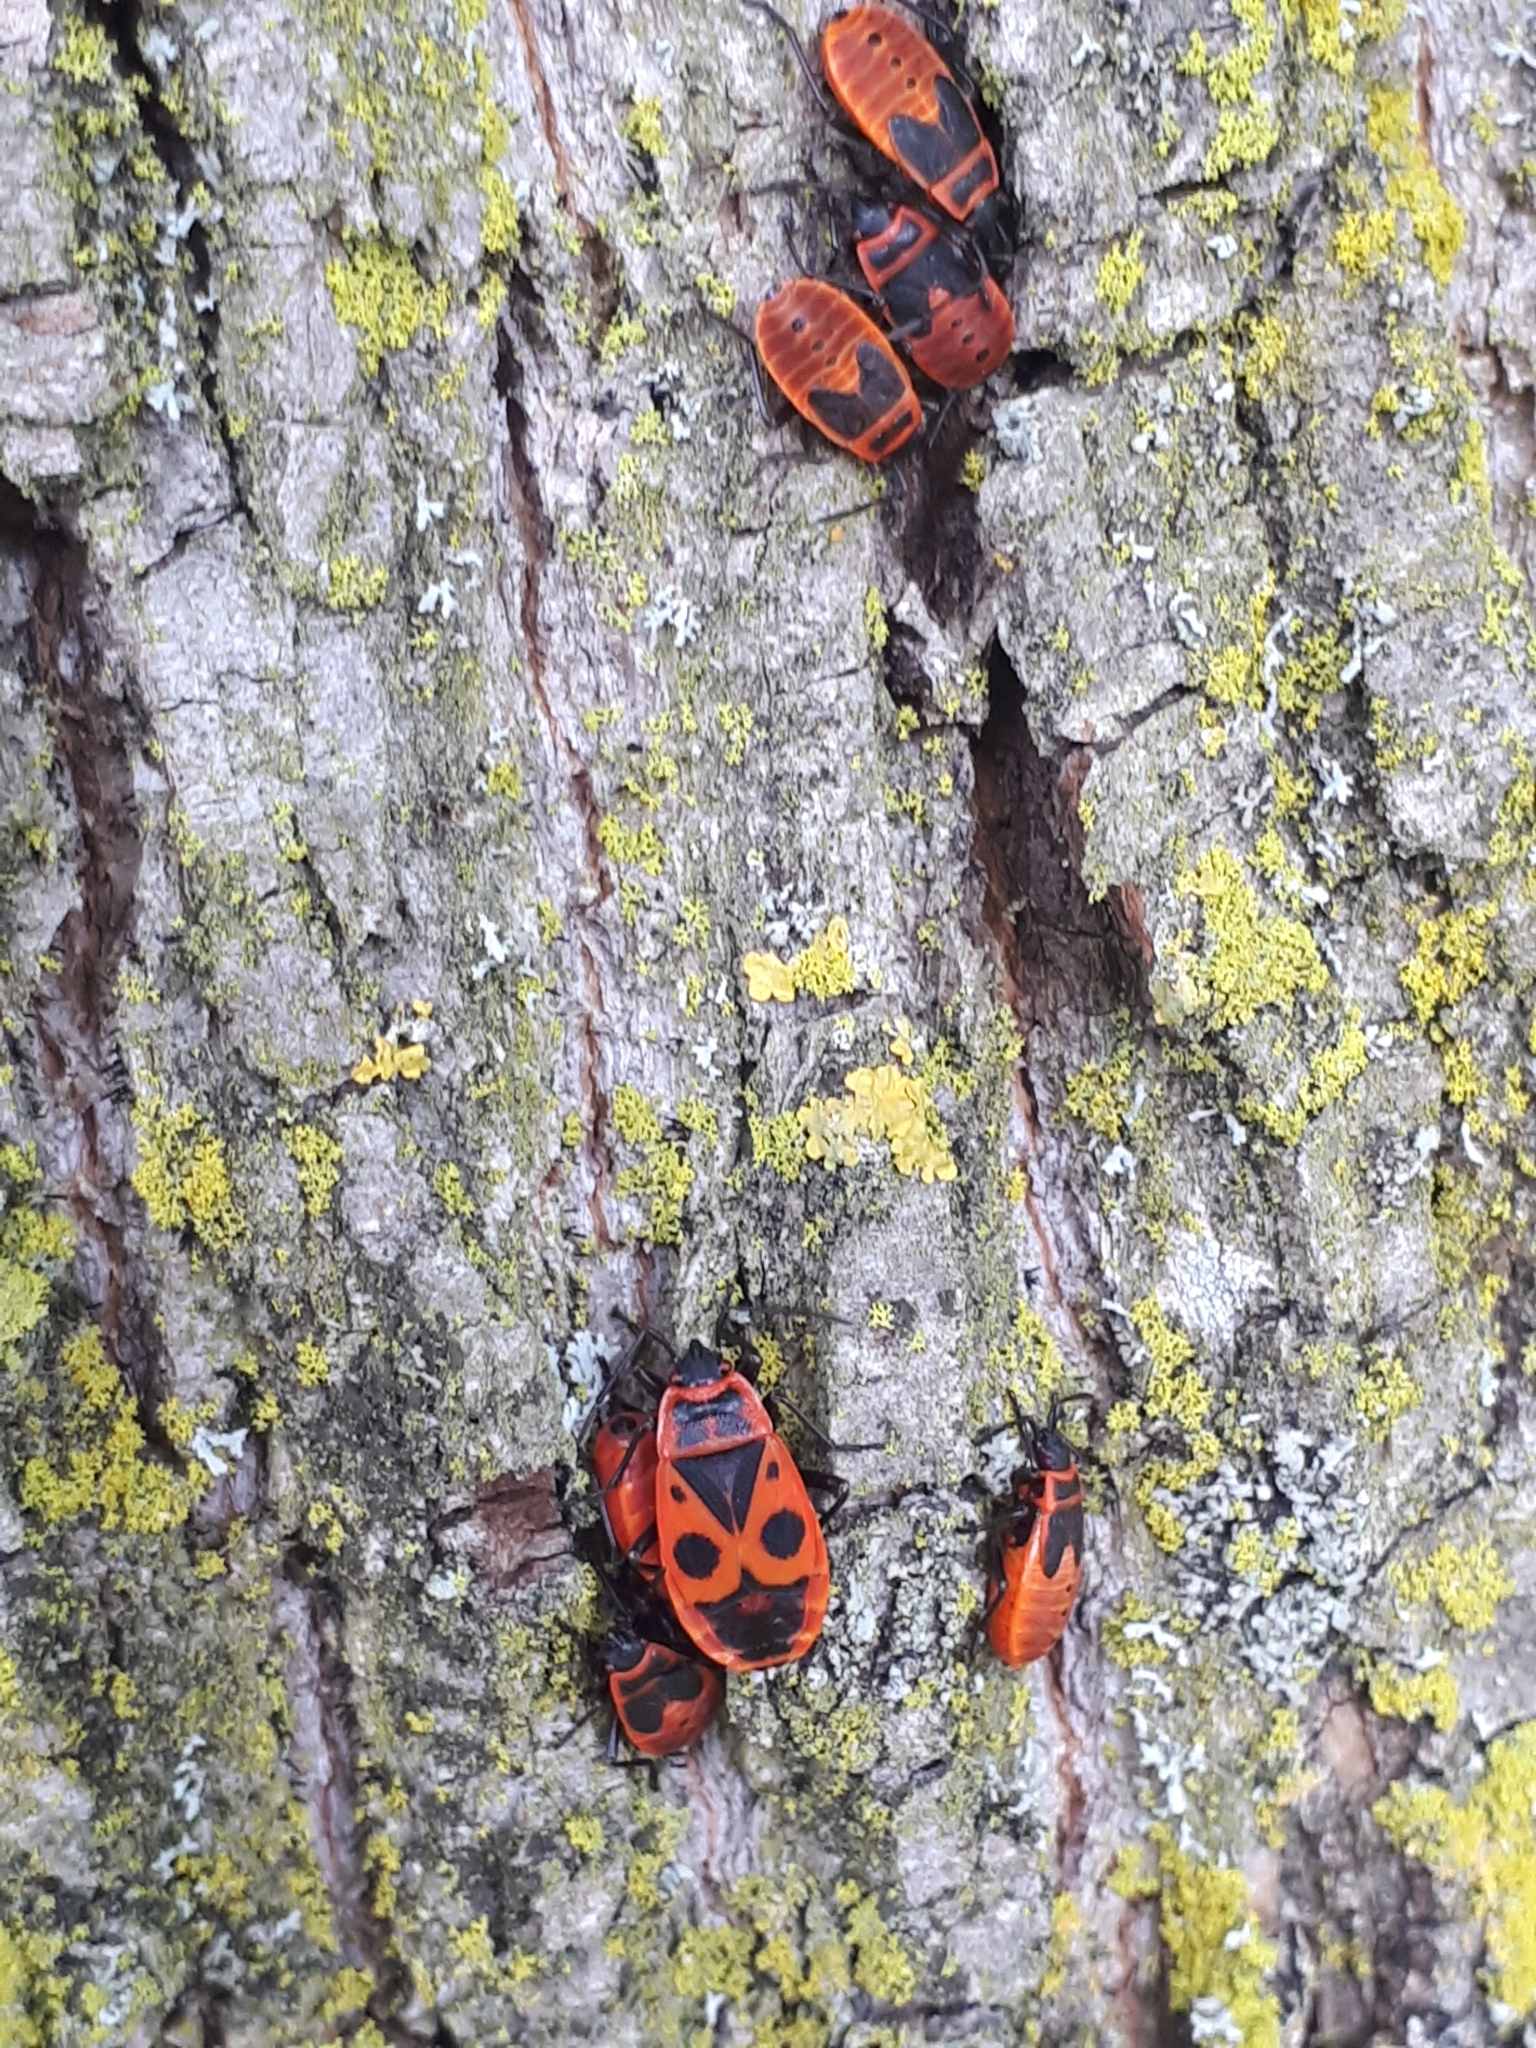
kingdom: Animalia
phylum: Arthropoda
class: Insecta
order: Hemiptera
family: Pyrrhocoridae
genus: Pyrrhocoris
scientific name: Pyrrhocoris apterus
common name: Firebug
